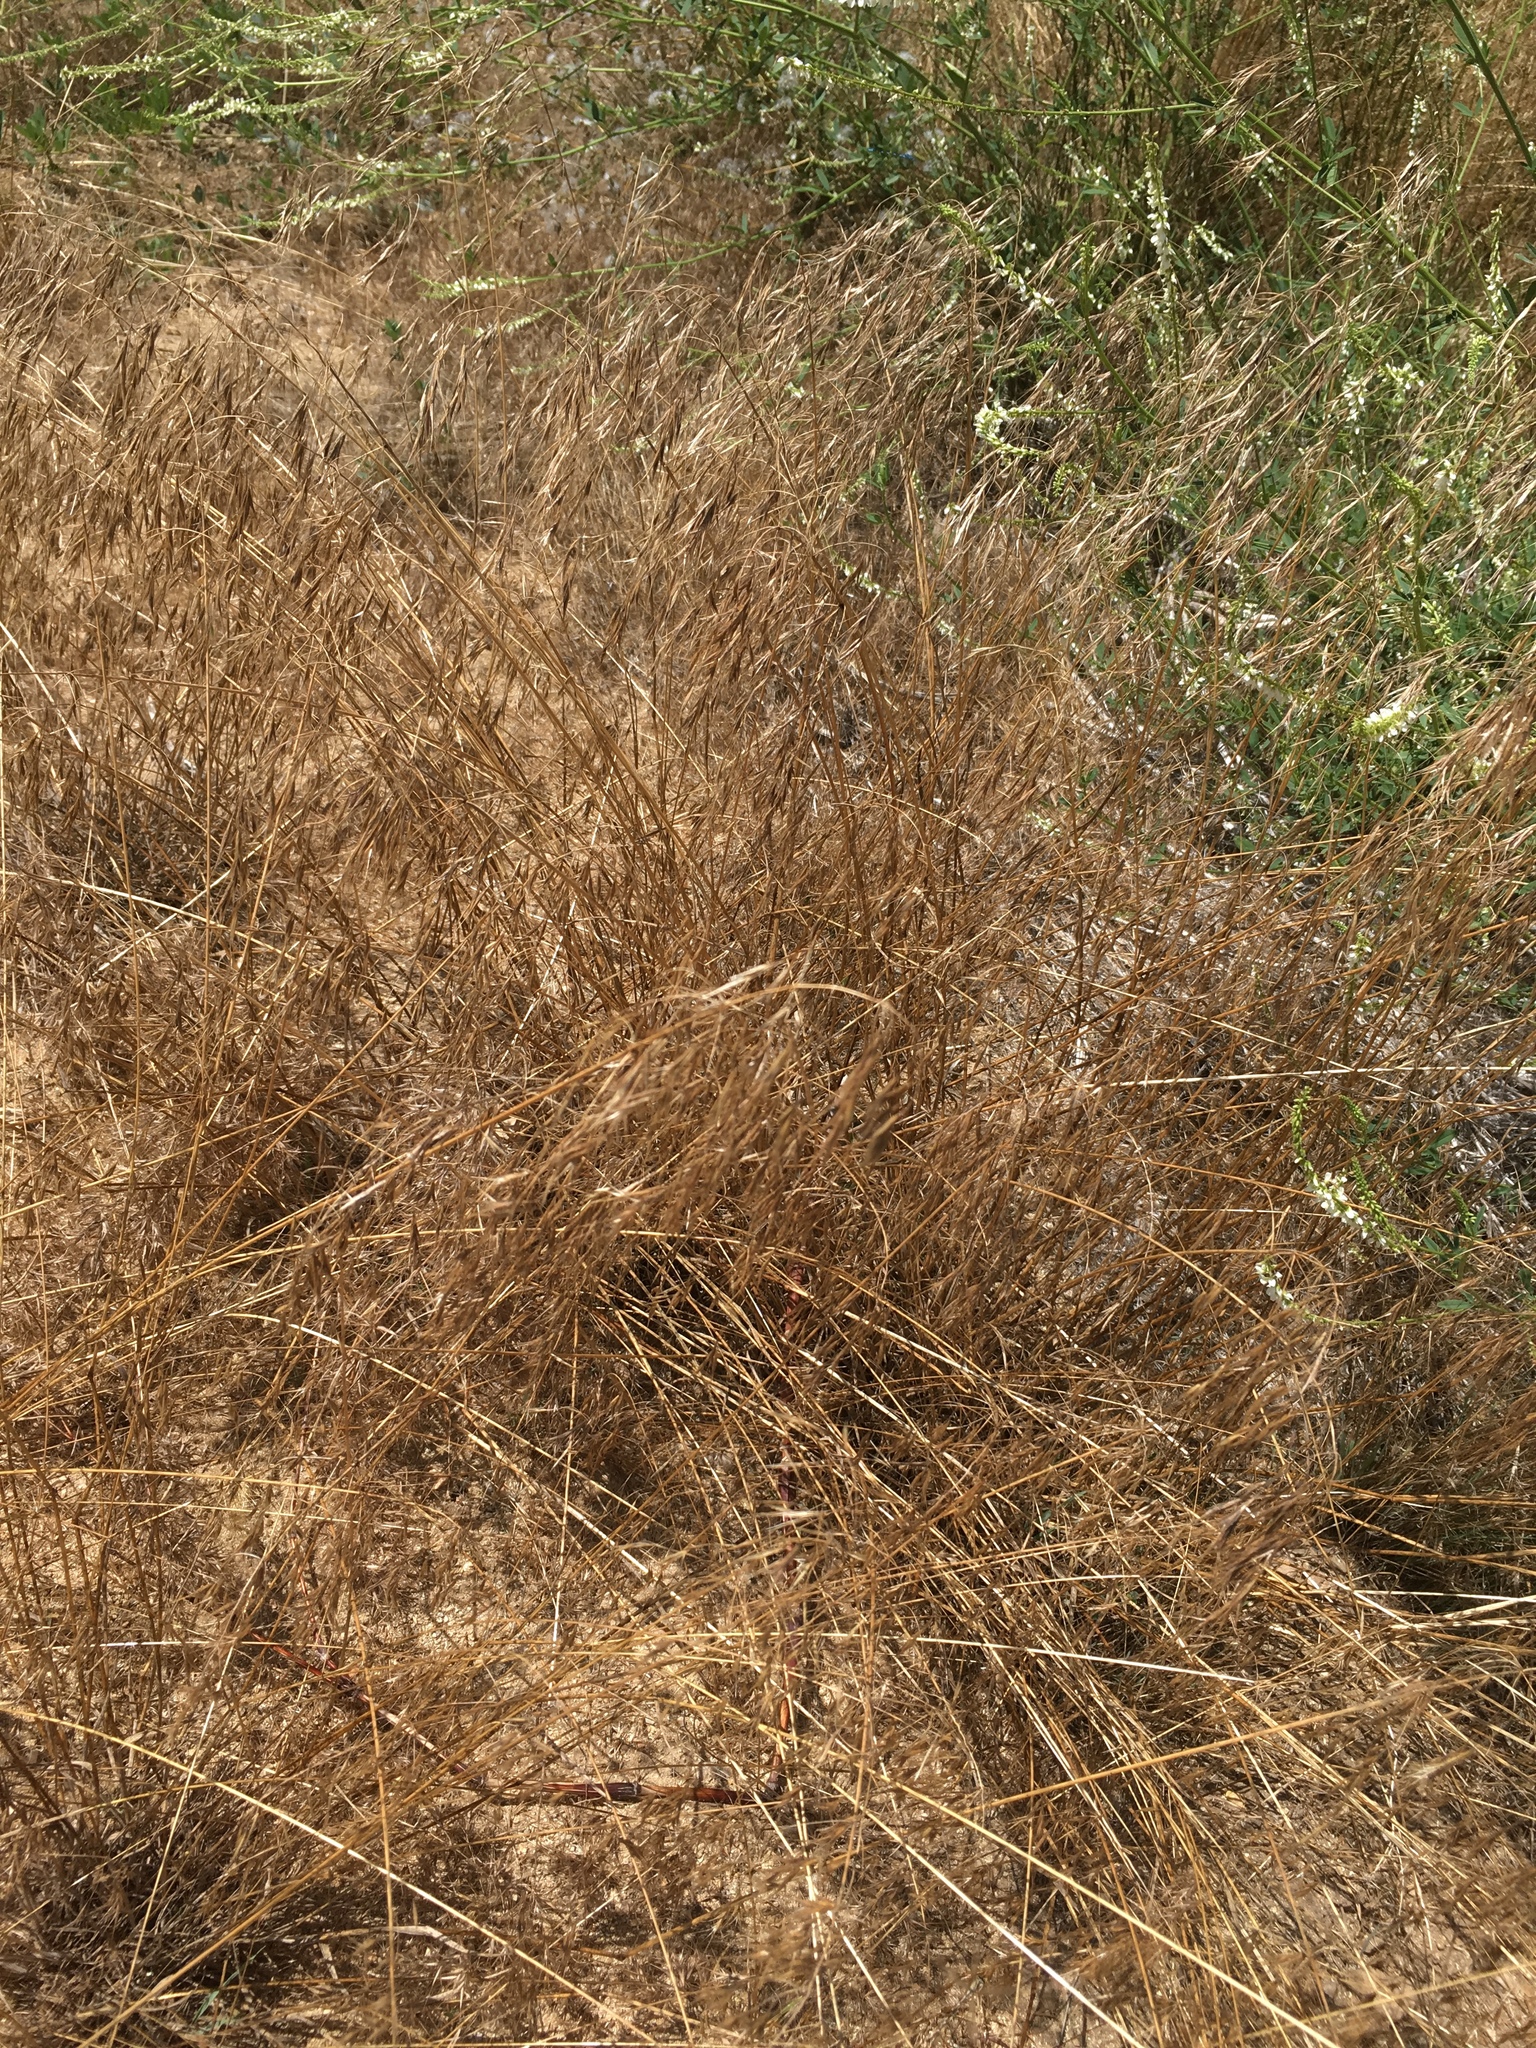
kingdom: Plantae
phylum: Tracheophyta
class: Liliopsida
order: Poales
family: Poaceae
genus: Bromus
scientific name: Bromus tectorum
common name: Cheatgrass
